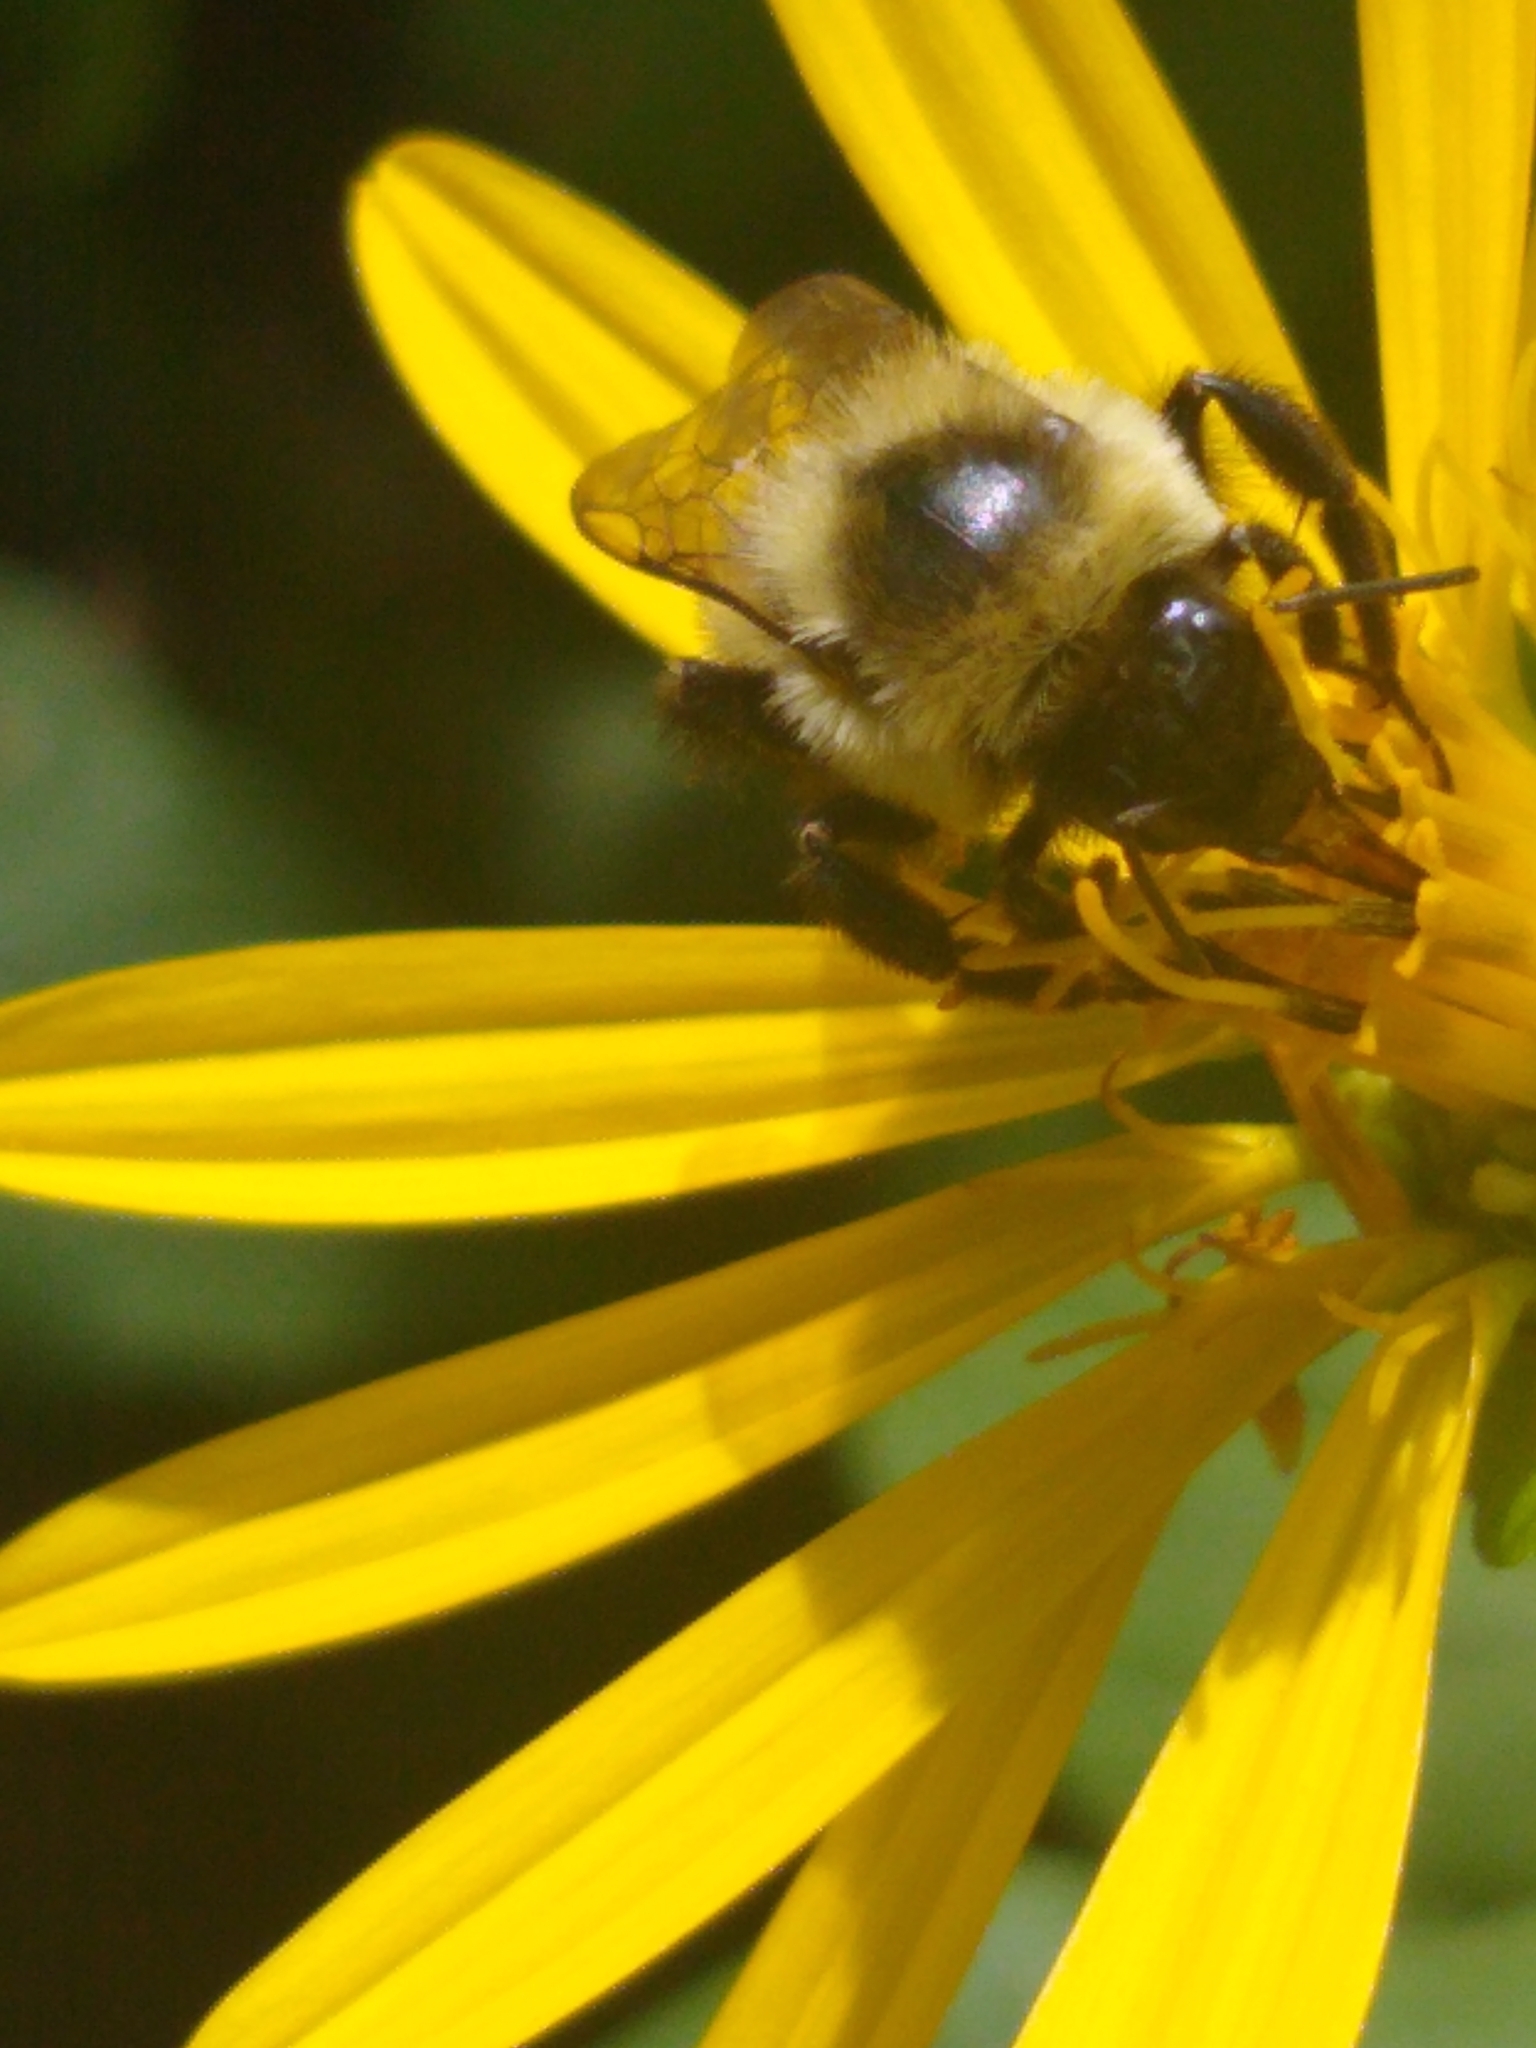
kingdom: Animalia
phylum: Arthropoda
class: Insecta
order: Hymenoptera
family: Apidae
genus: Bombus
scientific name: Bombus impatiens
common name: Common eastern bumble bee
